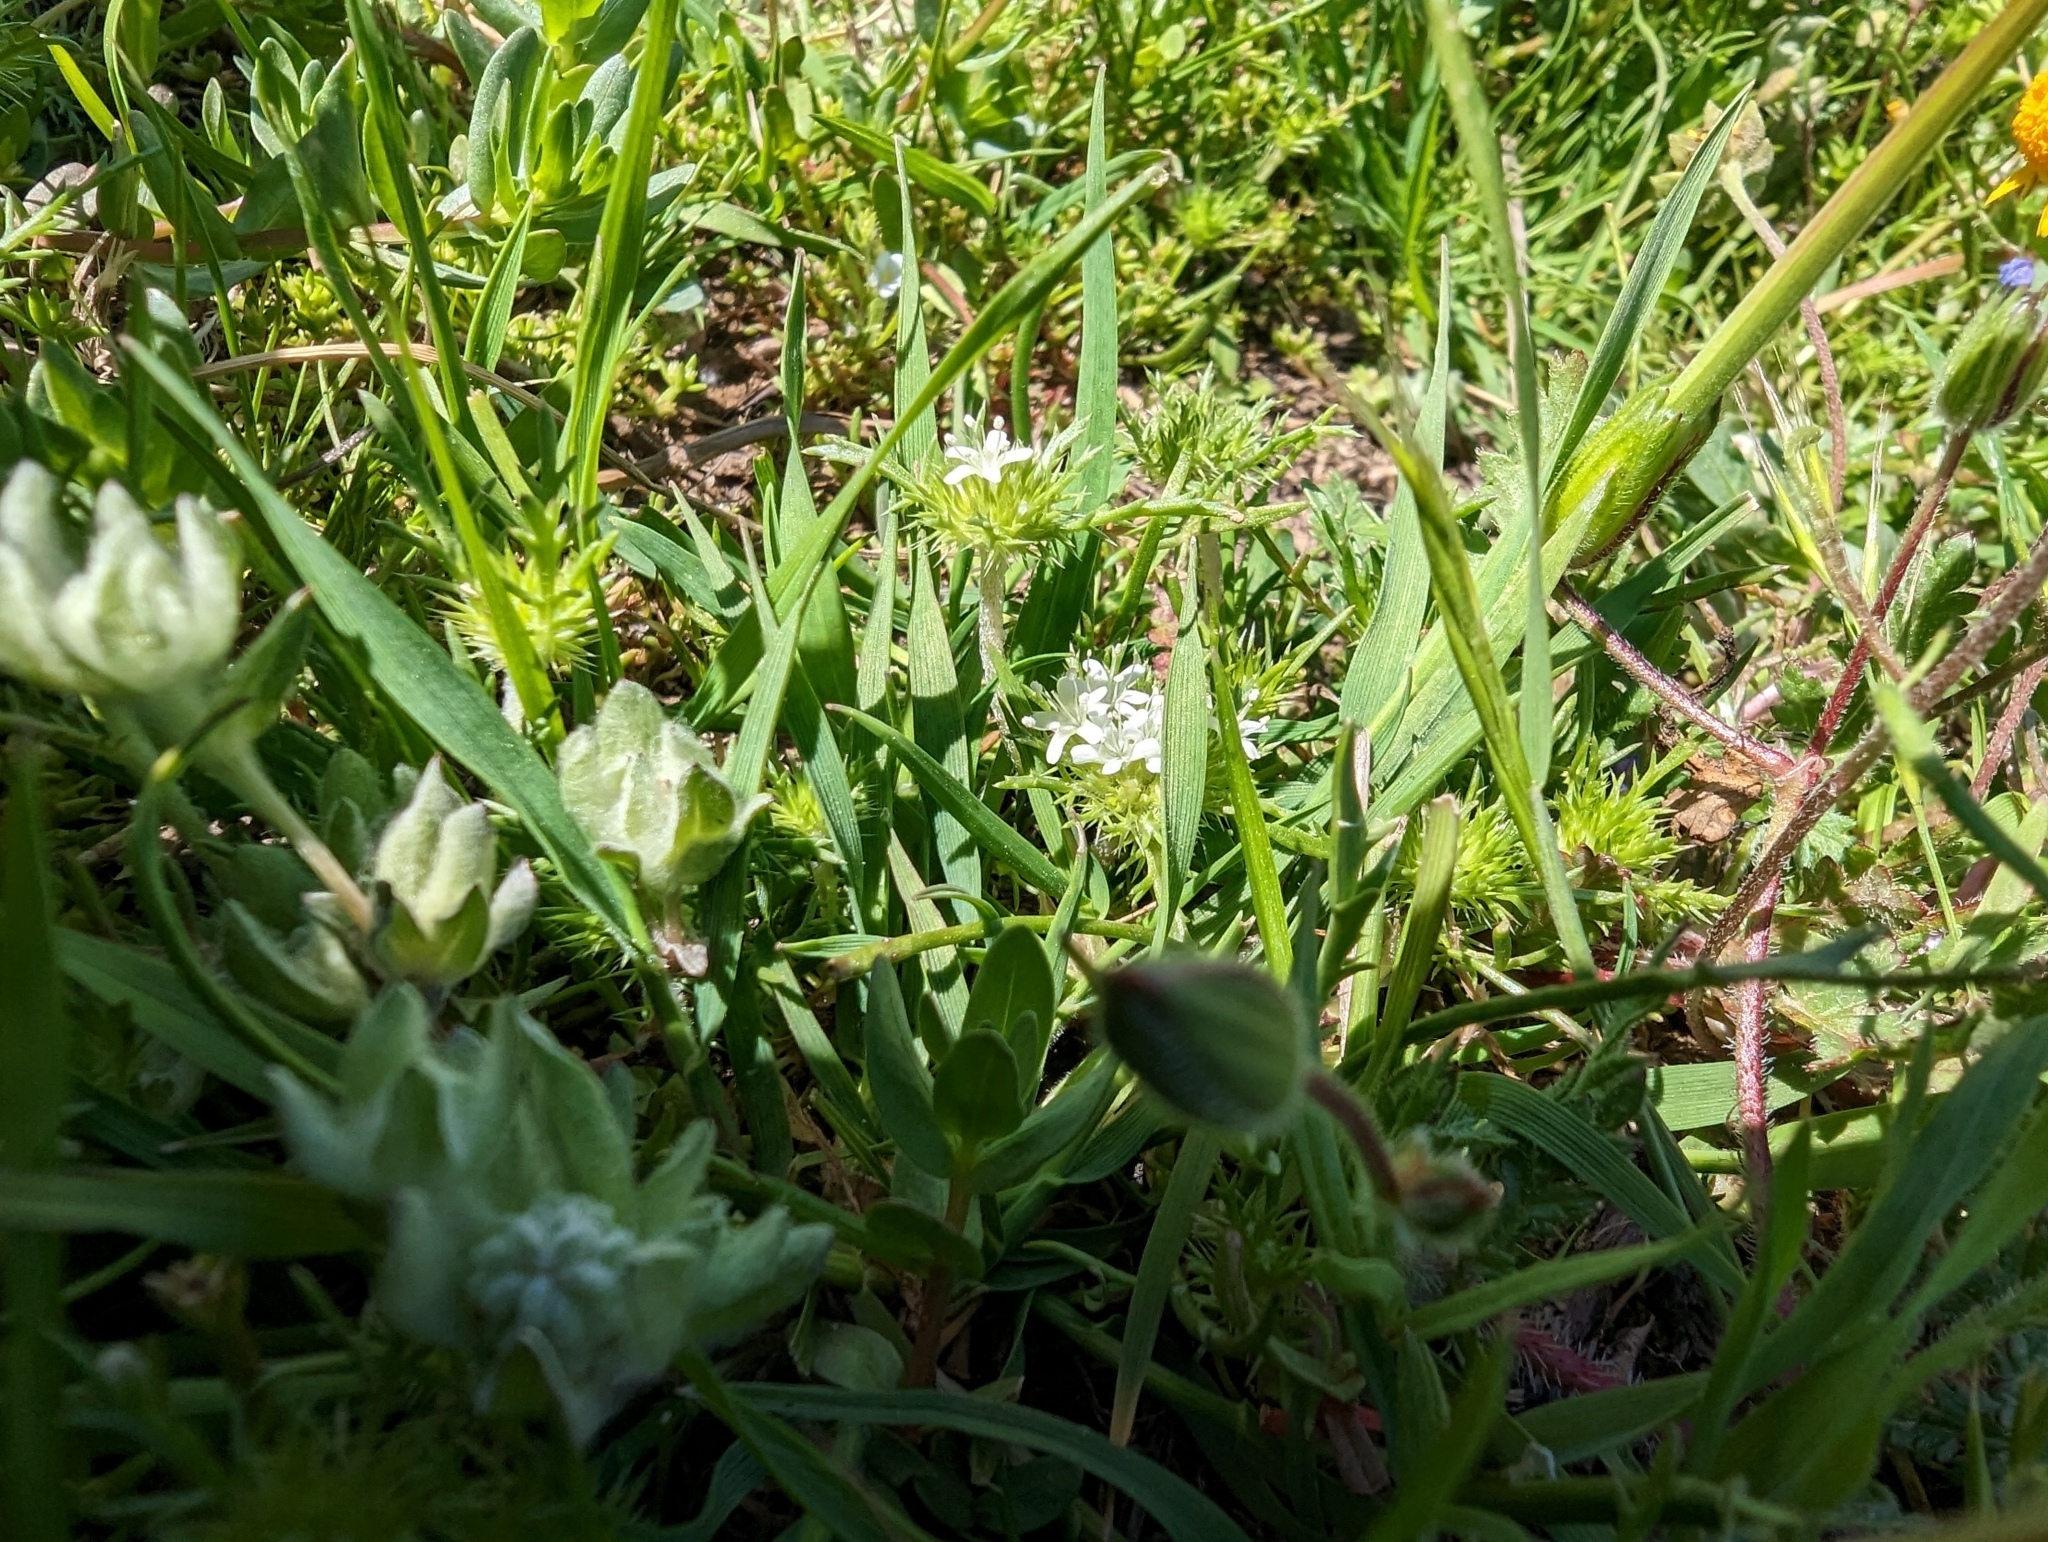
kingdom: Plantae
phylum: Tracheophyta
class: Magnoliopsida
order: Ericales
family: Polemoniaceae
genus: Navarretia
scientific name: Navarretia leucocephala
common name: White-flowered navarretia
